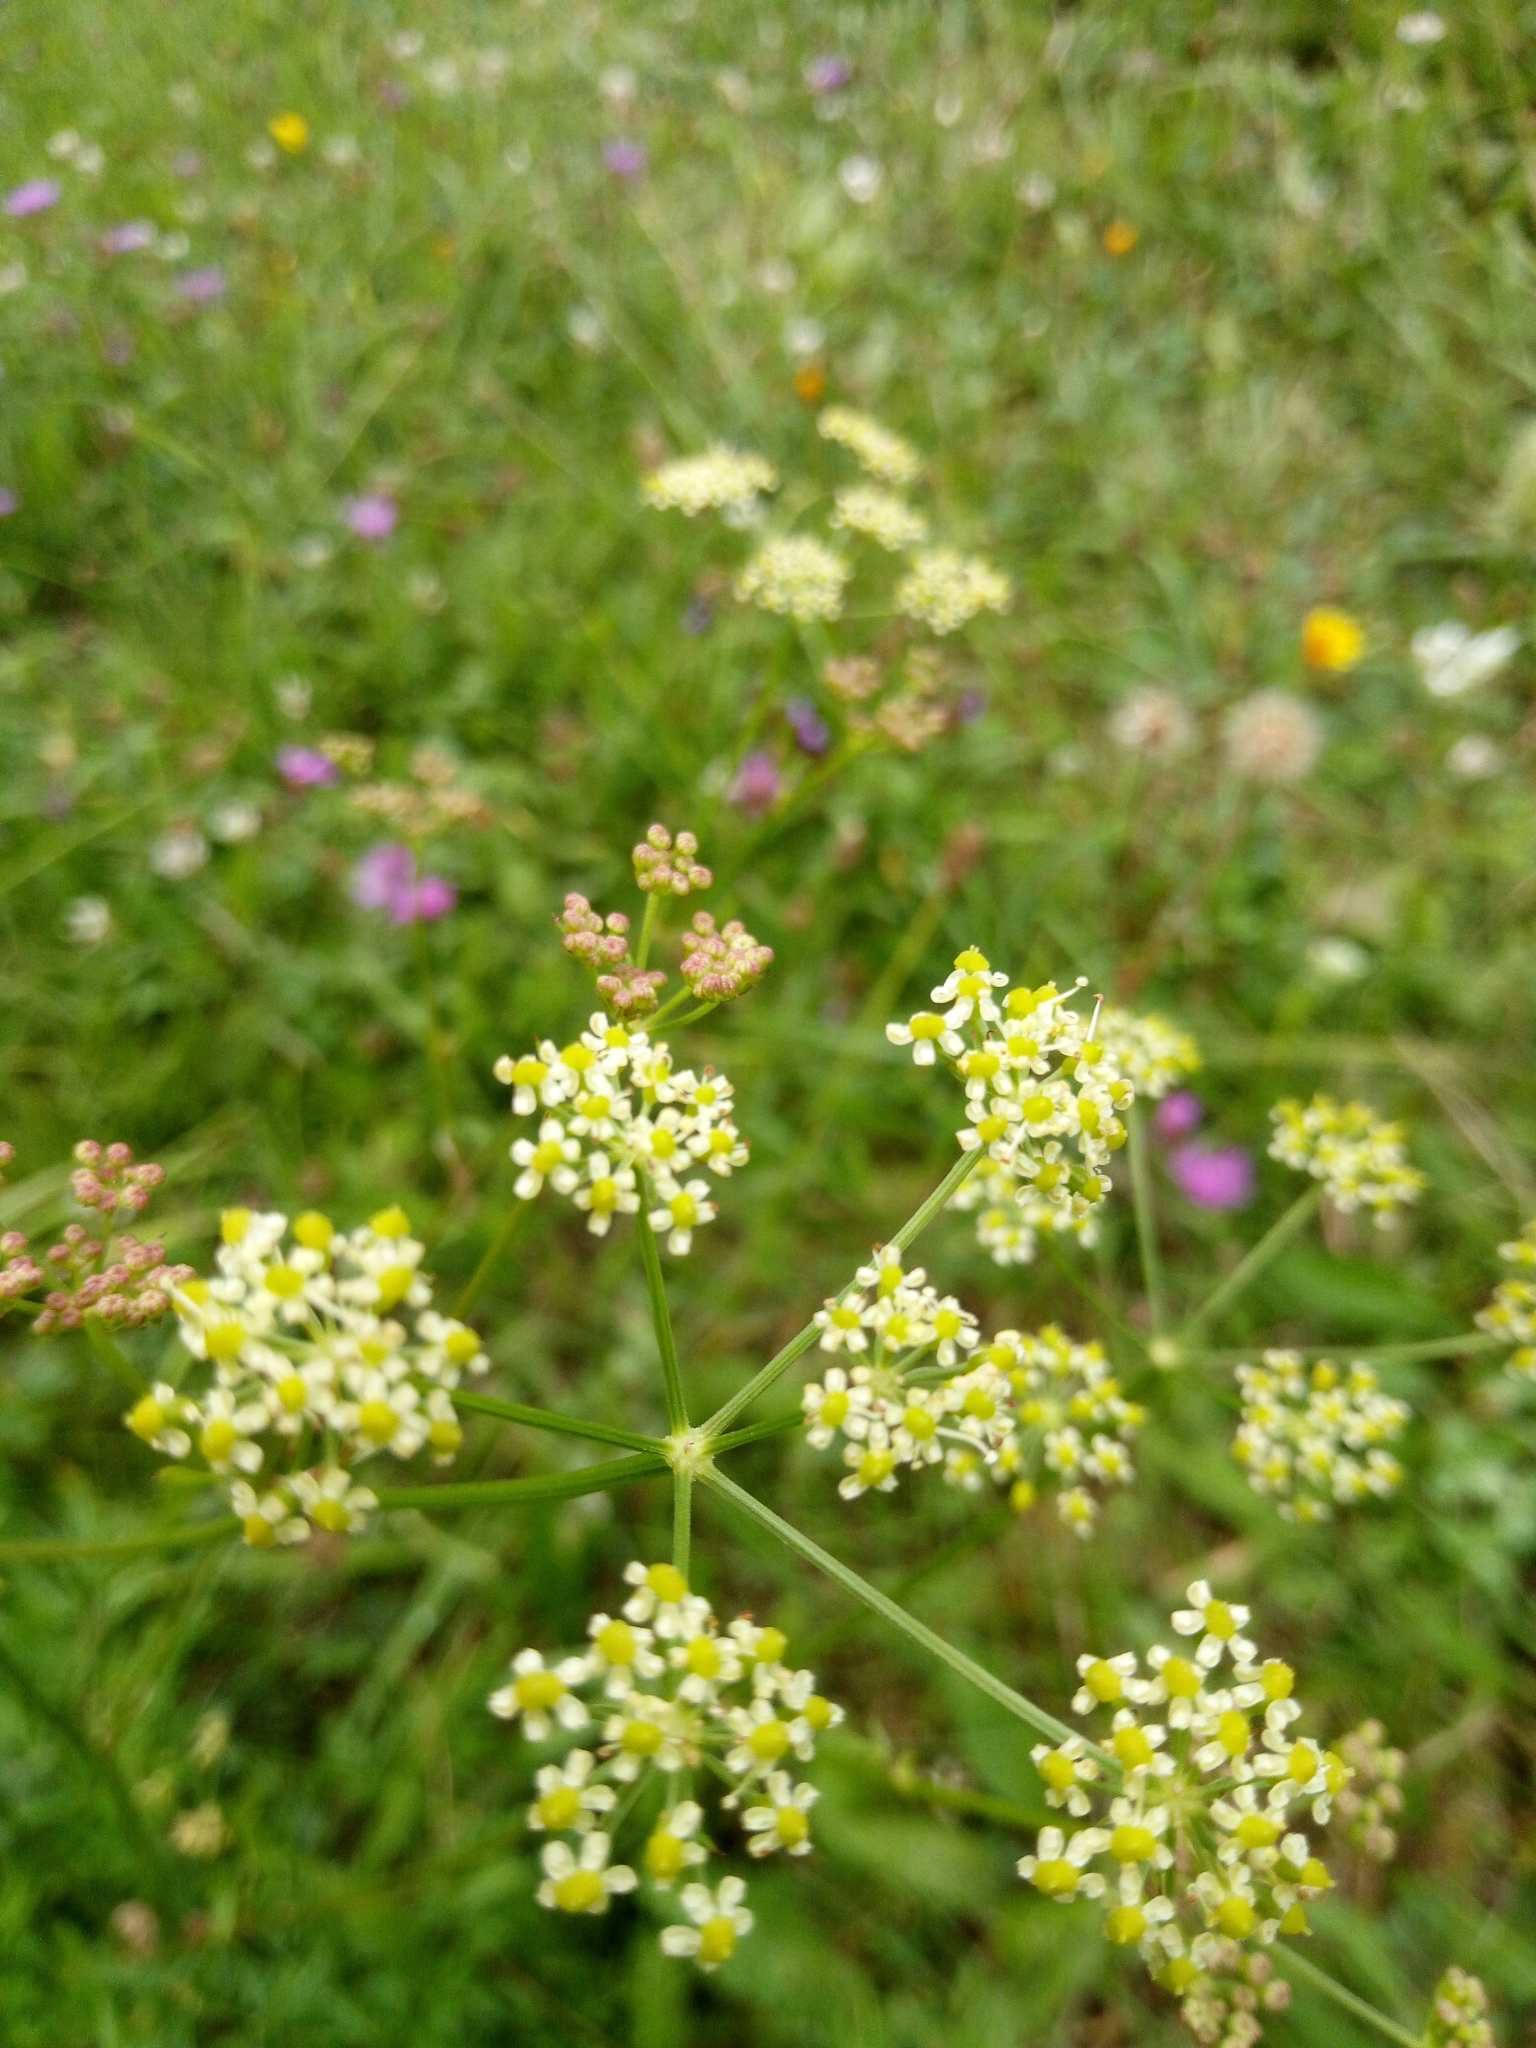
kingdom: Plantae
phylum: Tracheophyta
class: Magnoliopsida
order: Apiales
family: Apiaceae
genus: Silaum
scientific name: Silaum silaus
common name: Pepper-saxifrage
